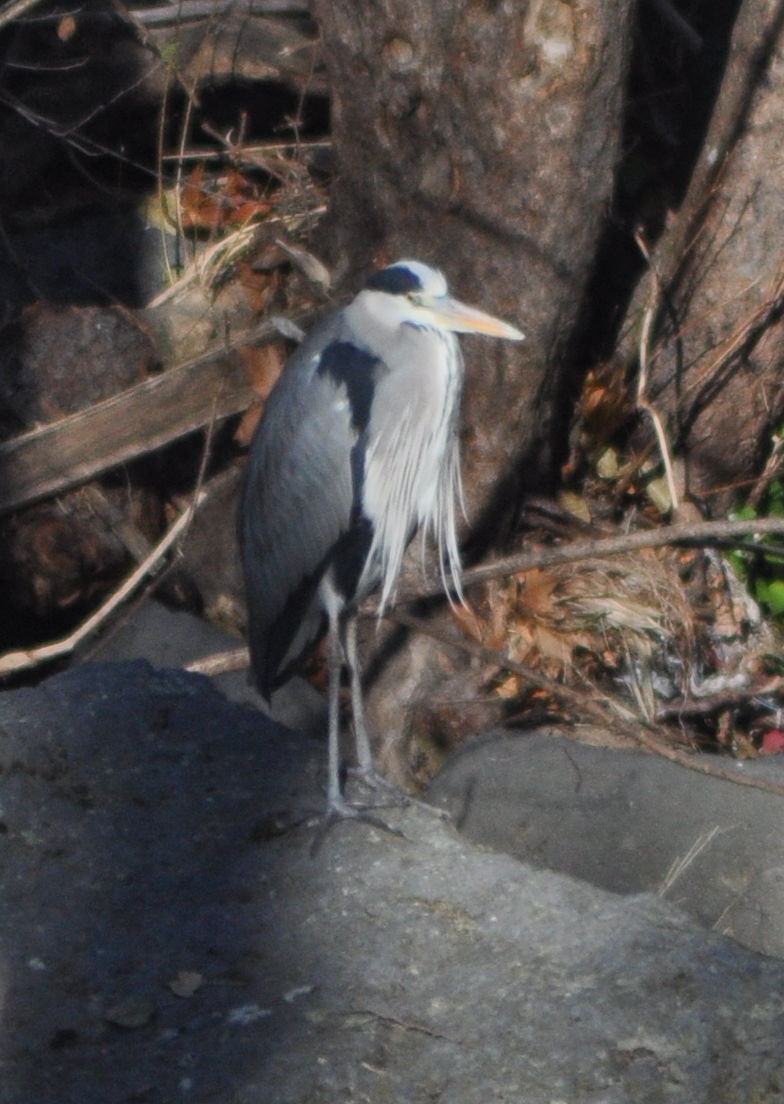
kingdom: Animalia
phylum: Chordata
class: Aves
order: Pelecaniformes
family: Ardeidae
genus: Ardea
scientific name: Ardea cinerea
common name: Grey heron
